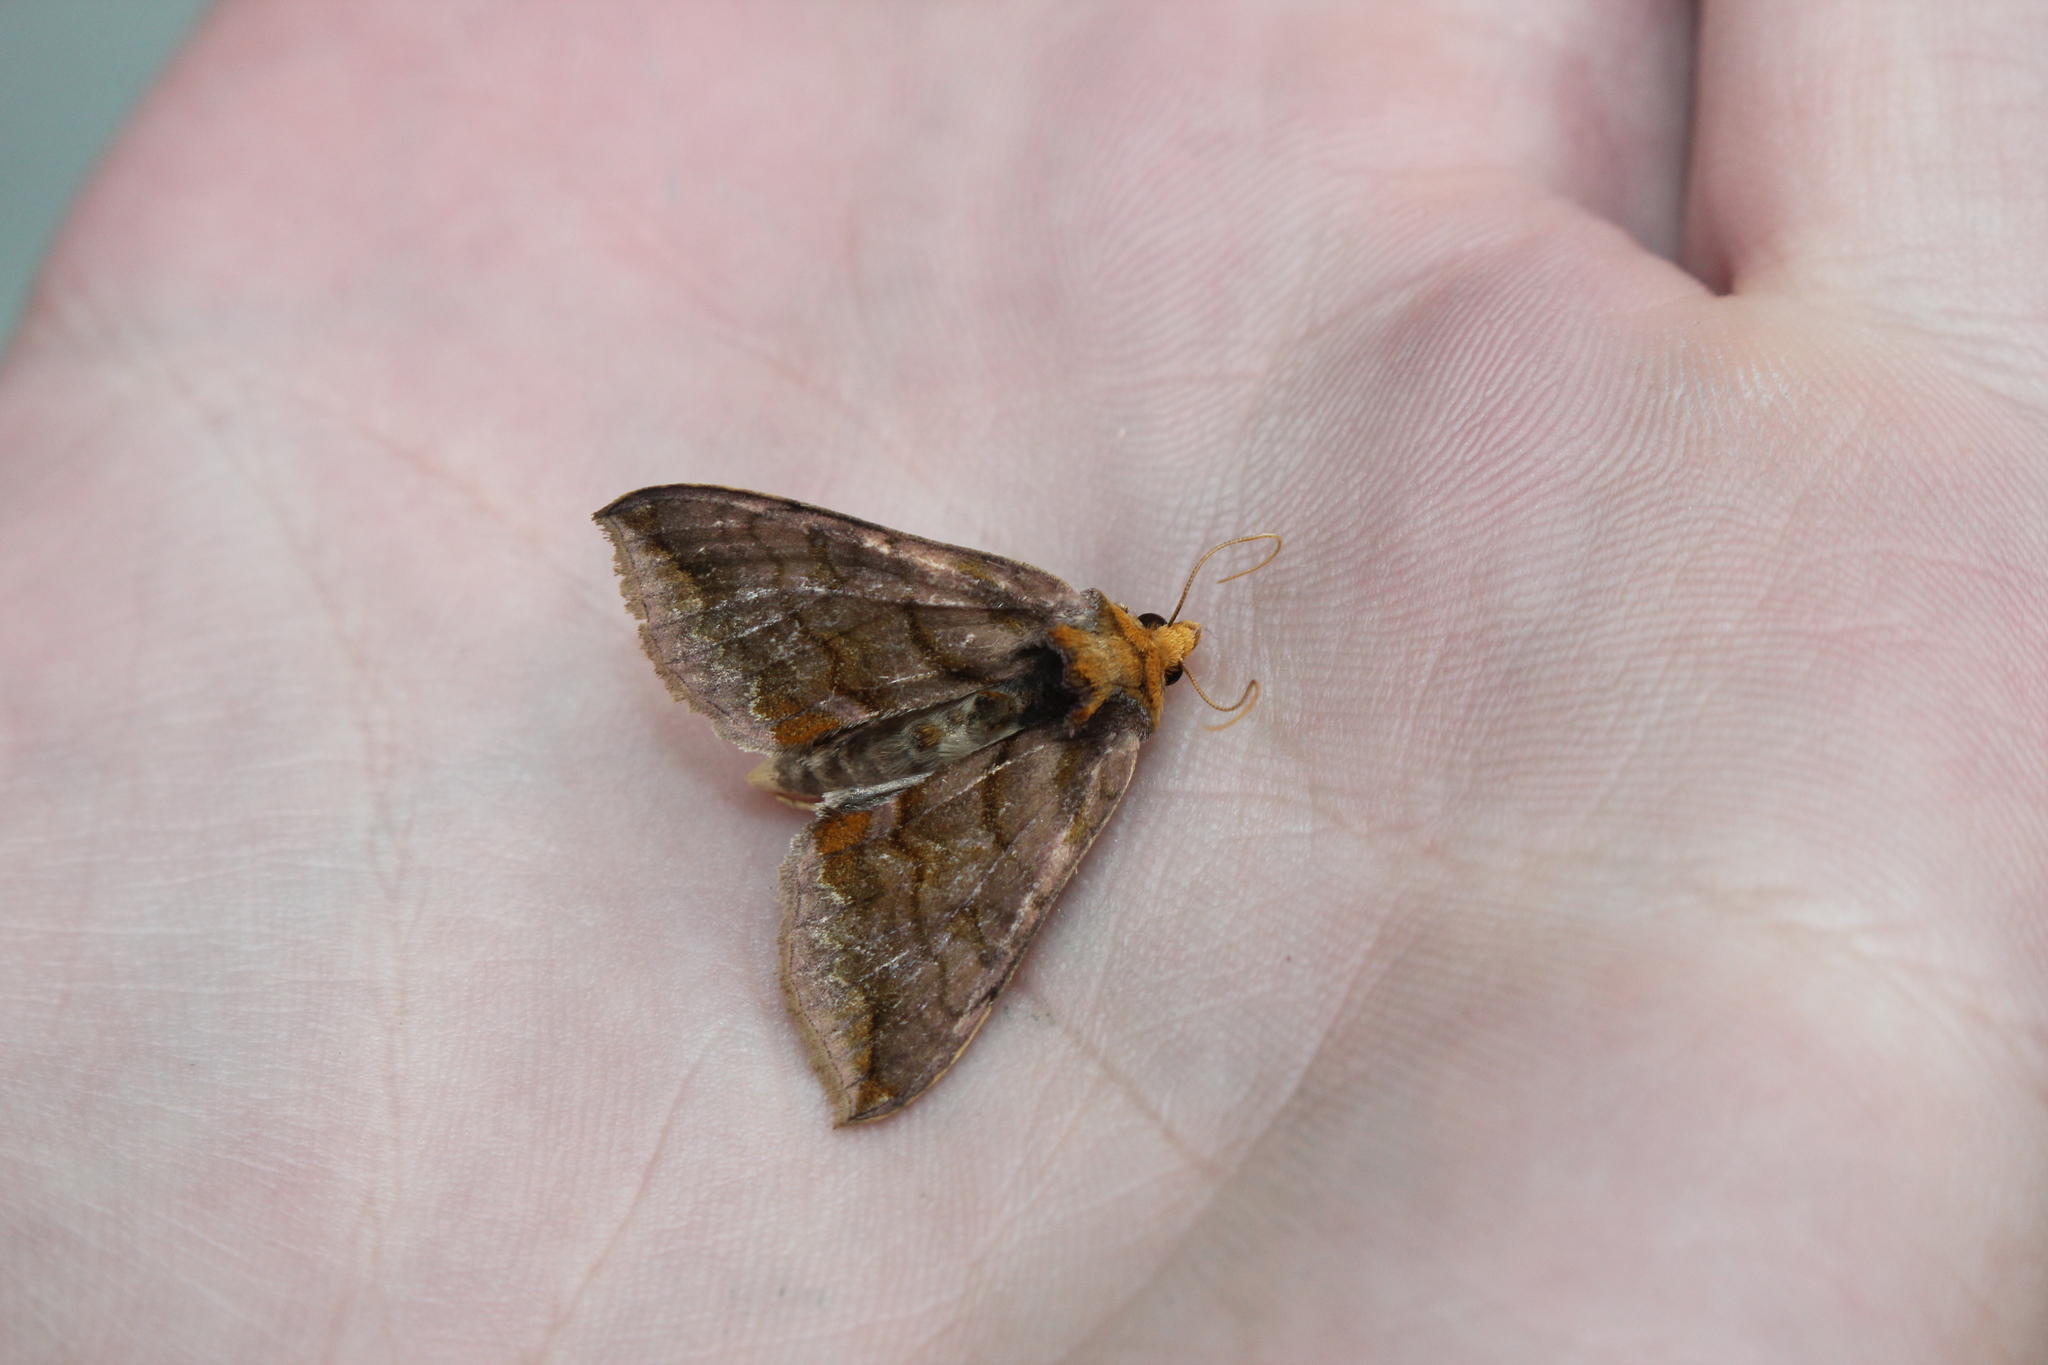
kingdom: Animalia
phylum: Arthropoda
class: Insecta
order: Lepidoptera
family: Noctuidae
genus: Allagrapha
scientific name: Allagrapha aerea
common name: Unspotted looper moth
